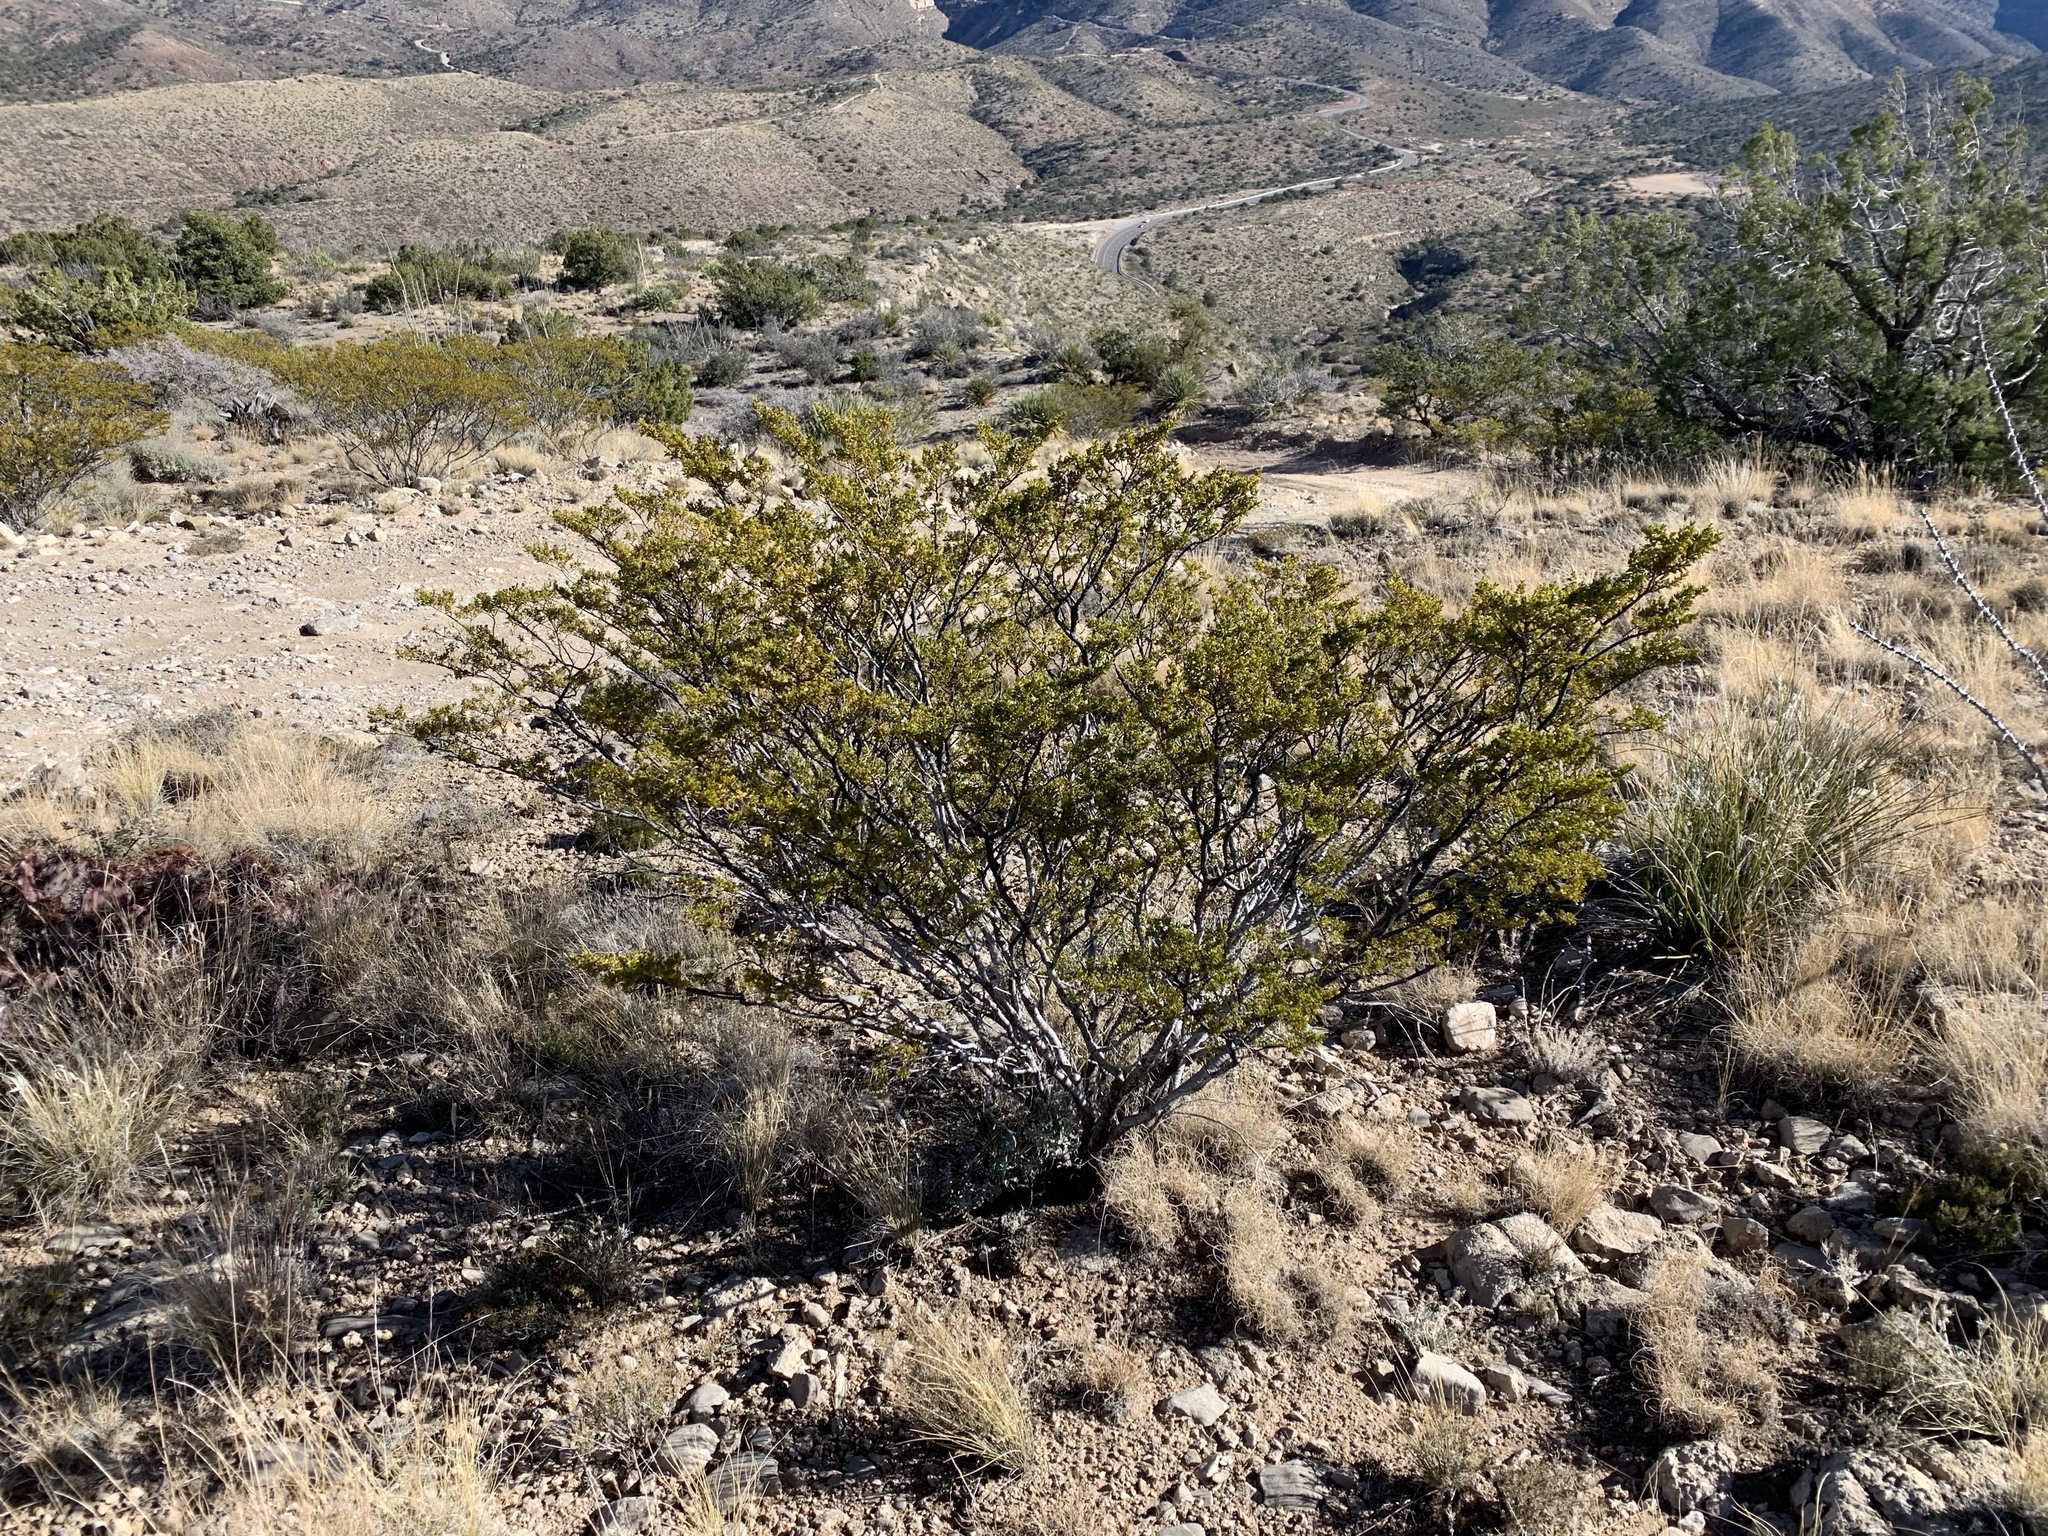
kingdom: Plantae
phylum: Tracheophyta
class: Magnoliopsida
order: Zygophyllales
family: Zygophyllaceae
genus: Larrea
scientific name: Larrea tridentata
